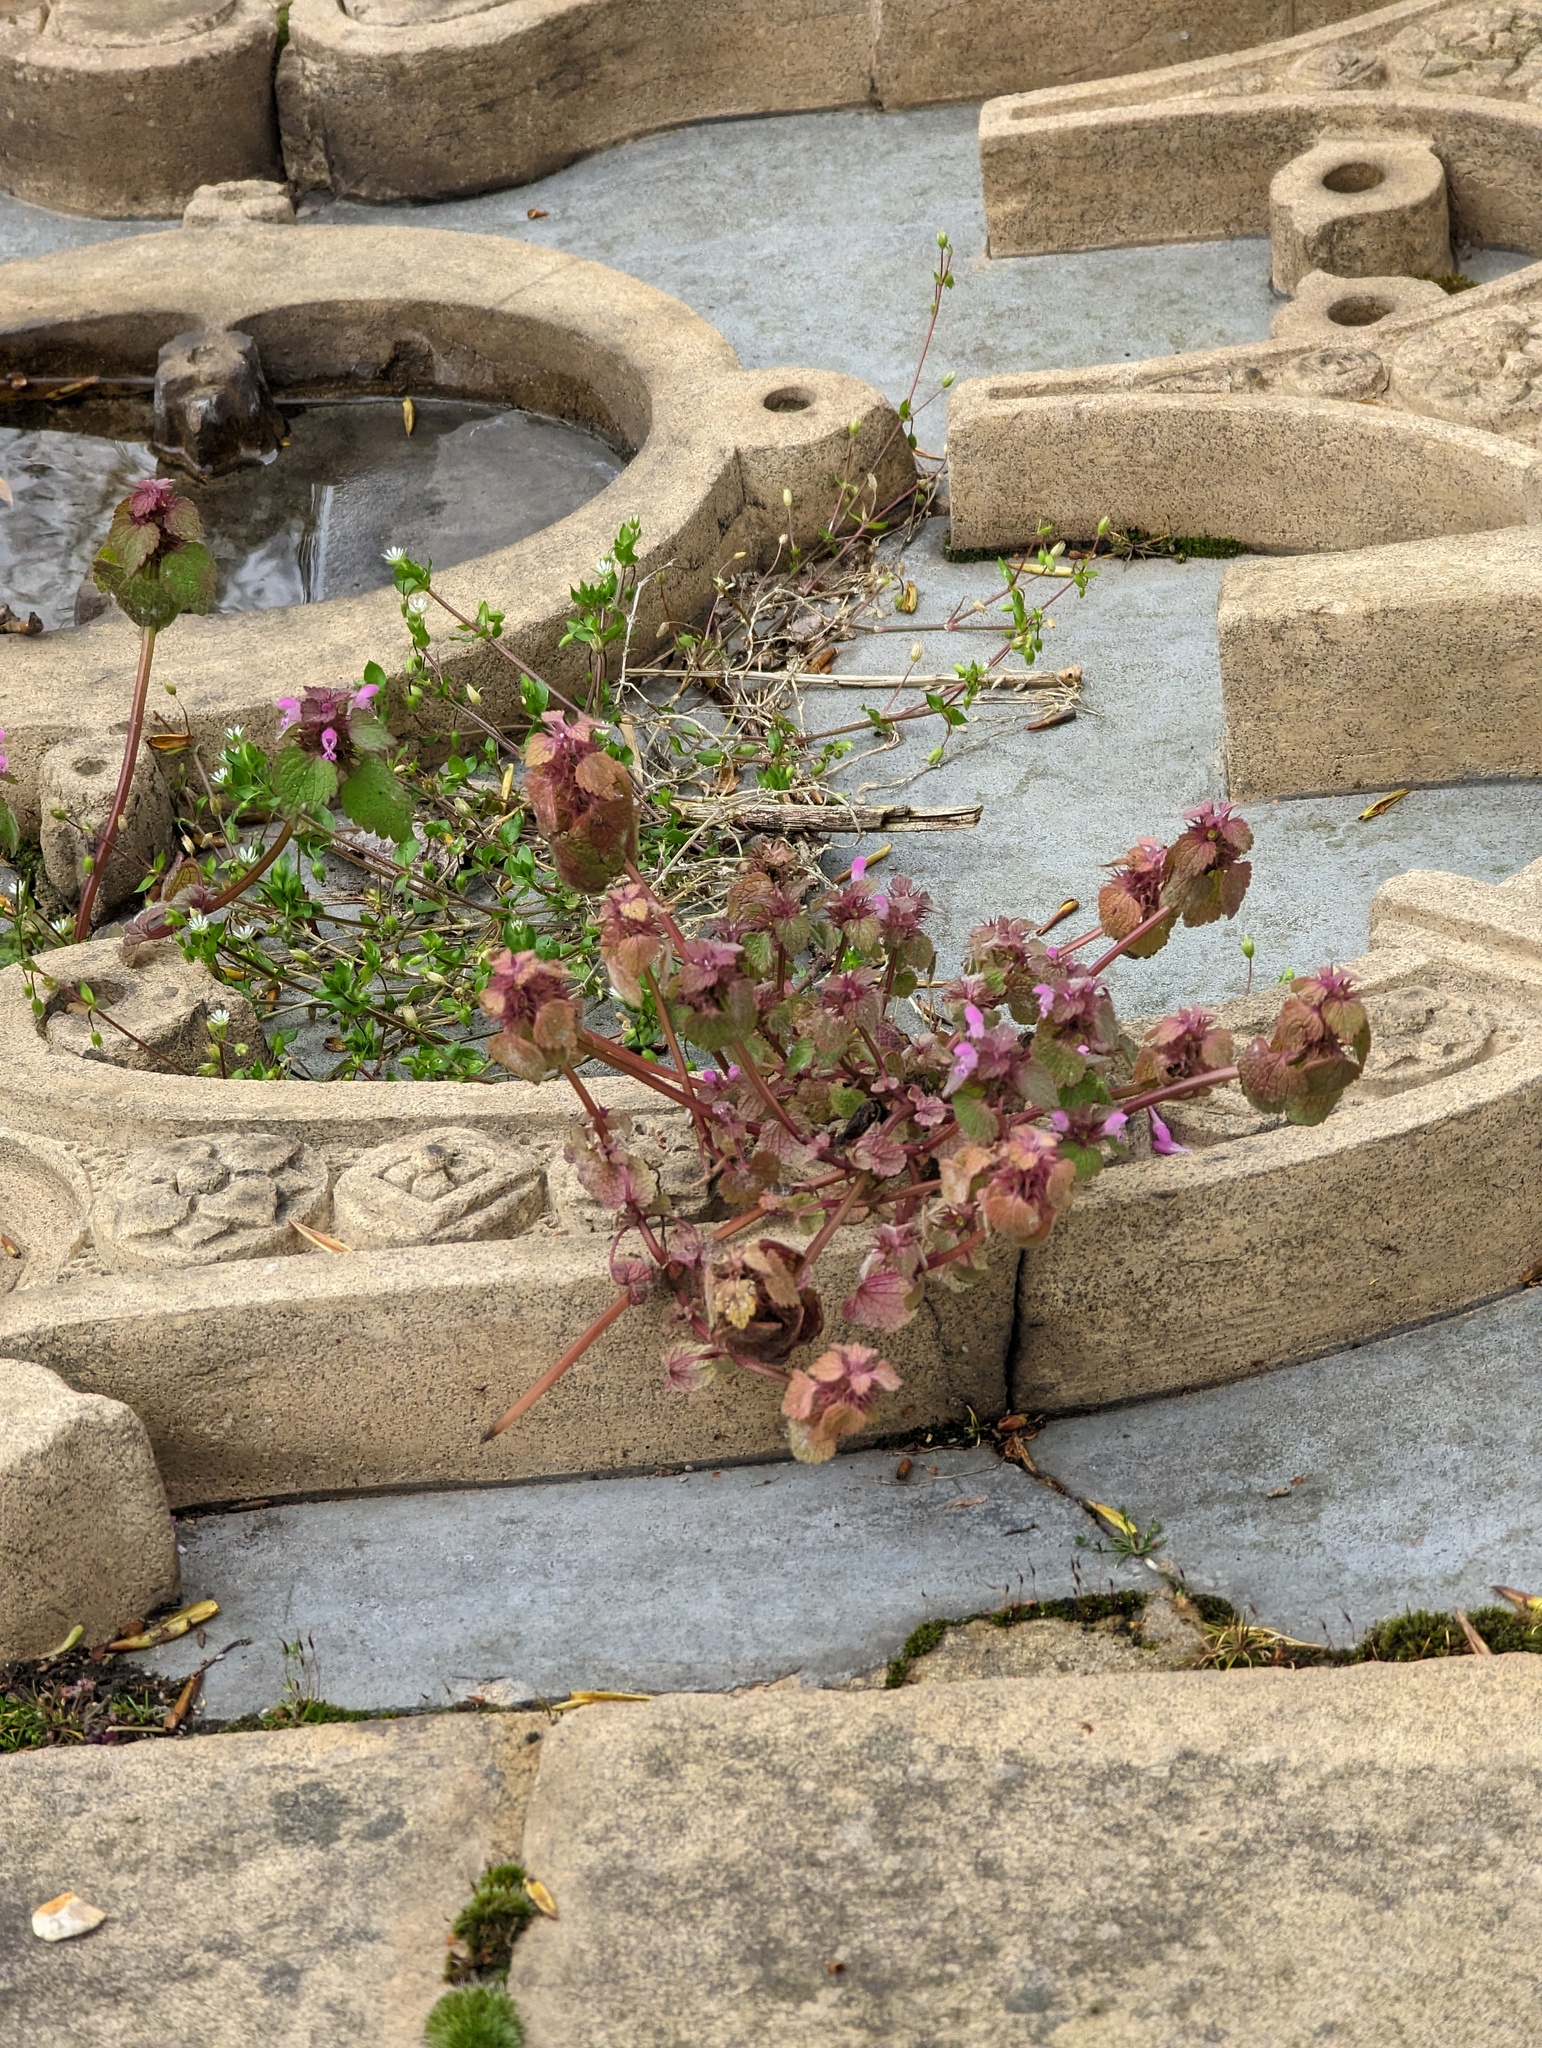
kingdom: Plantae
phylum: Tracheophyta
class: Magnoliopsida
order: Lamiales
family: Lamiaceae
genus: Lamium
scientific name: Lamium purpureum
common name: Red dead-nettle
